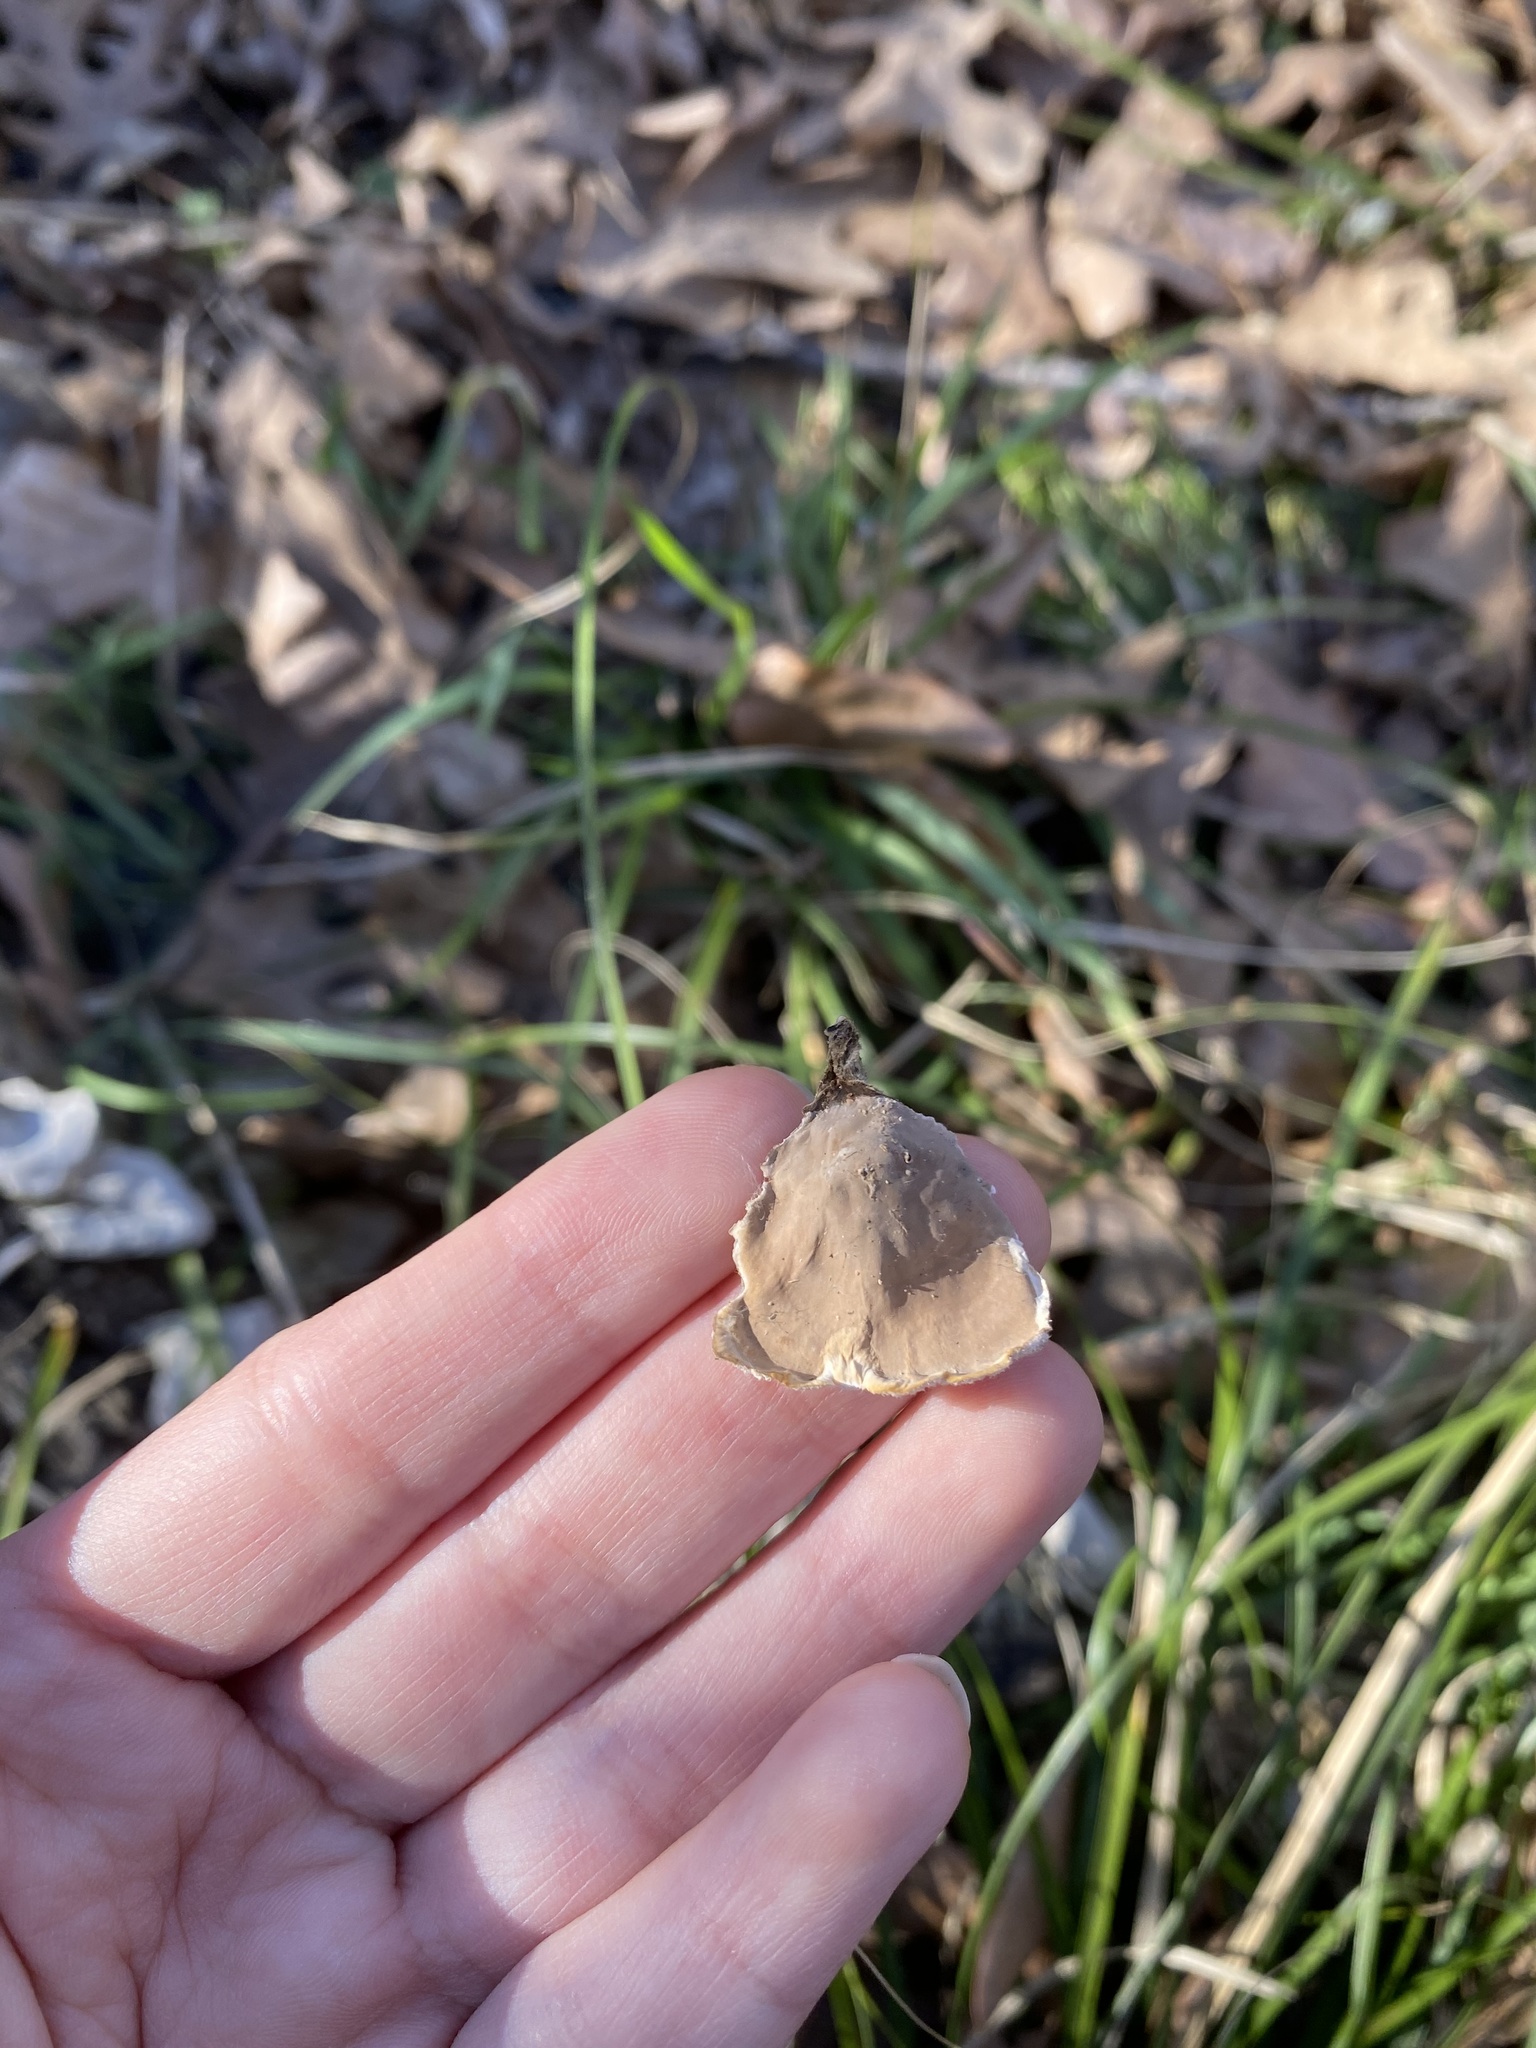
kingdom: Fungi
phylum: Basidiomycota
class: Agaricomycetes
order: Russulales
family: Stereaceae
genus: Stereum
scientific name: Stereum ostrea
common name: False turkeytail
